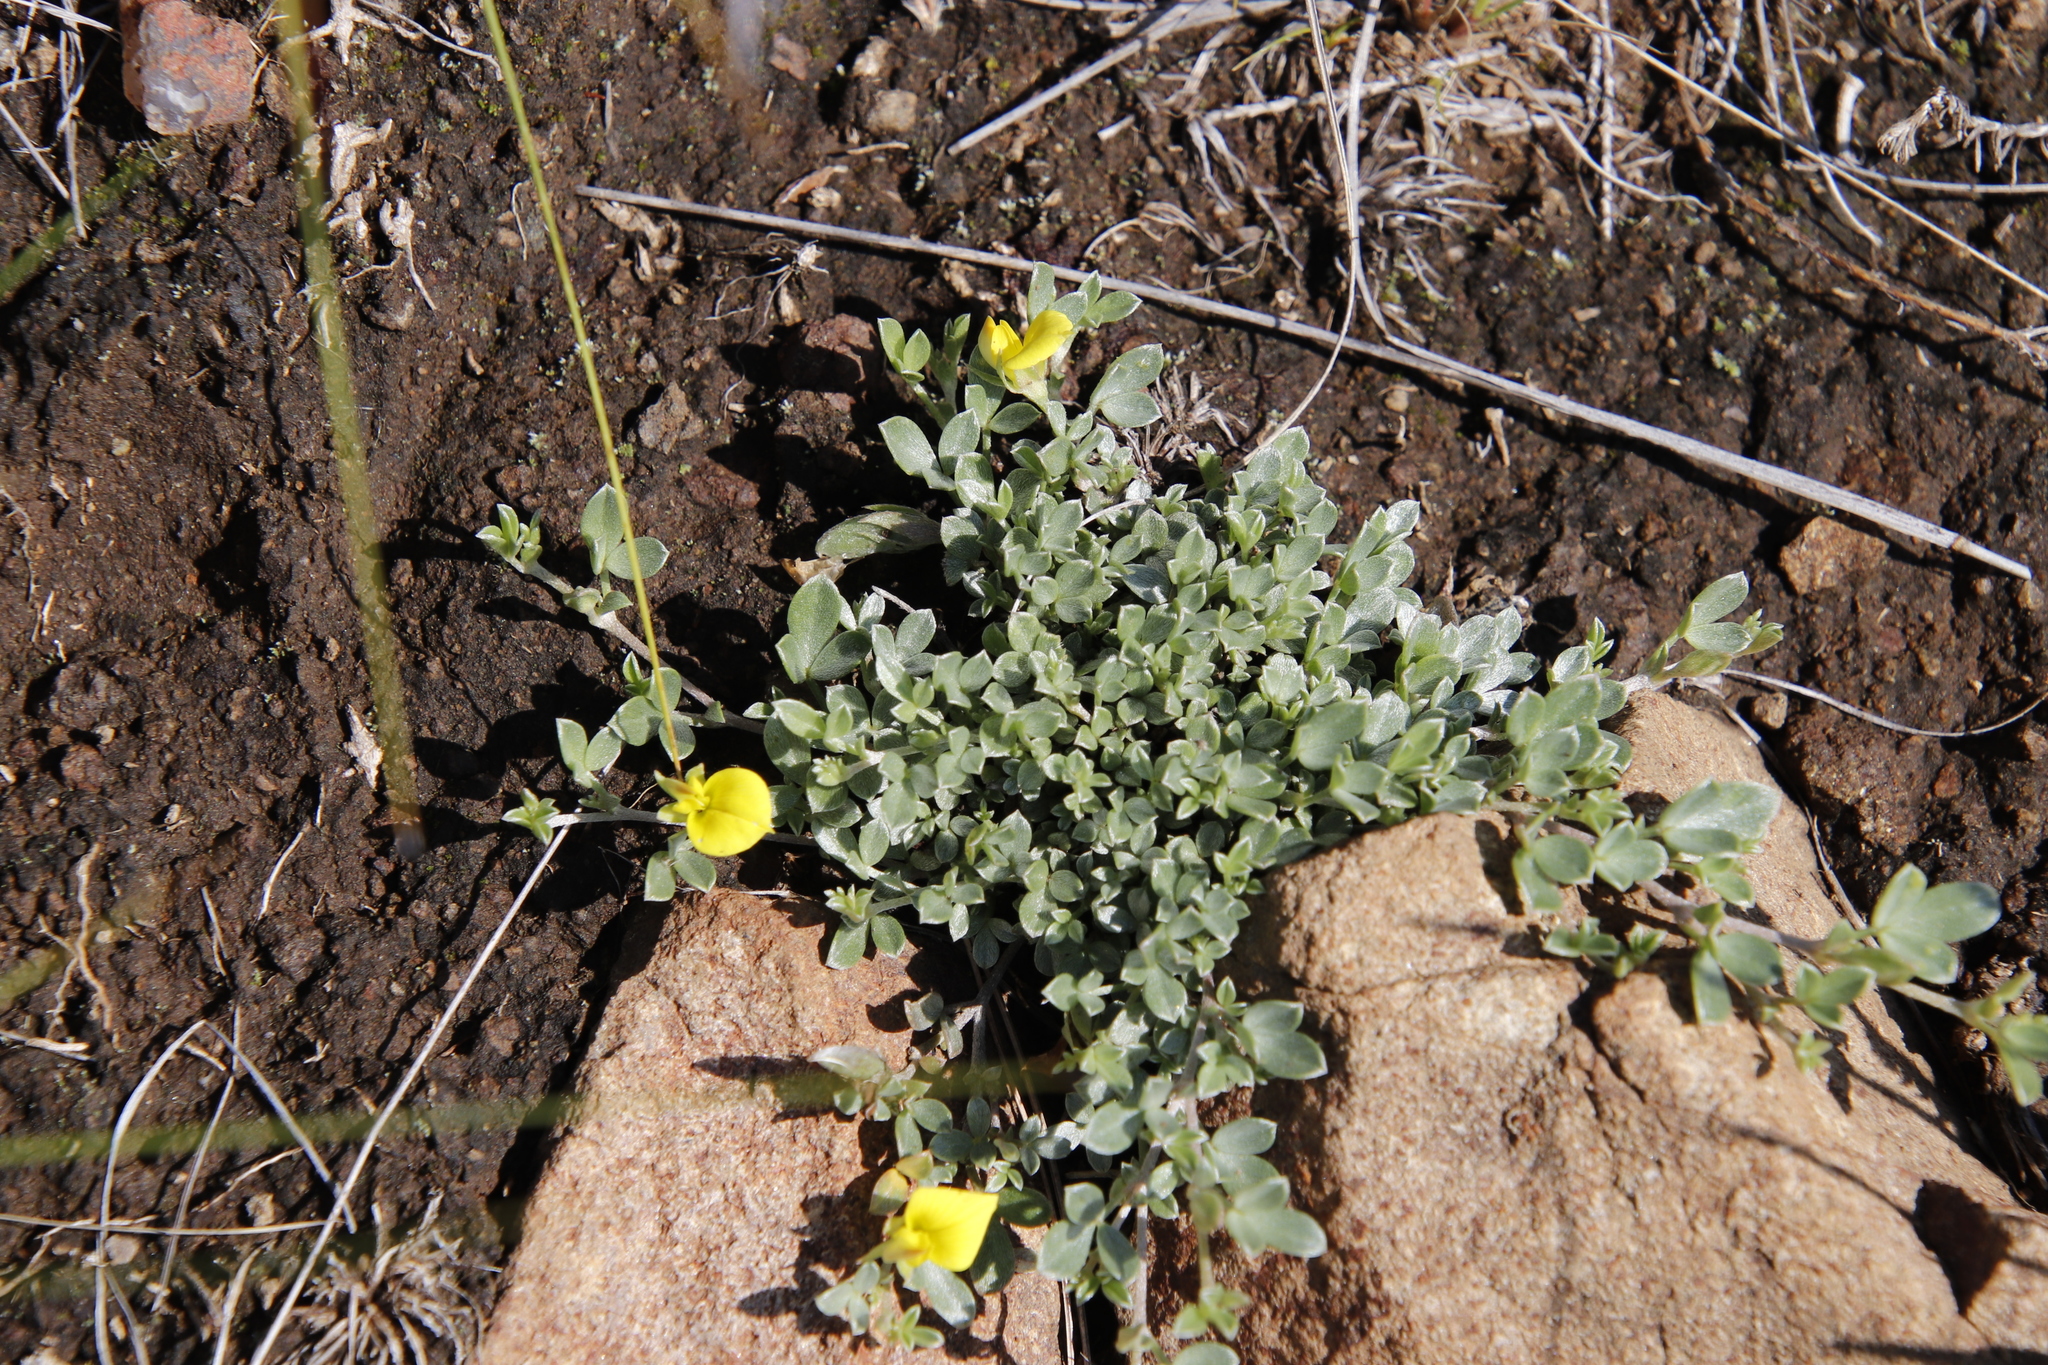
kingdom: Plantae
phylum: Tracheophyta
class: Magnoliopsida
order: Fabales
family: Fabaceae
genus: Lotononis
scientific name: Lotononis laxa
